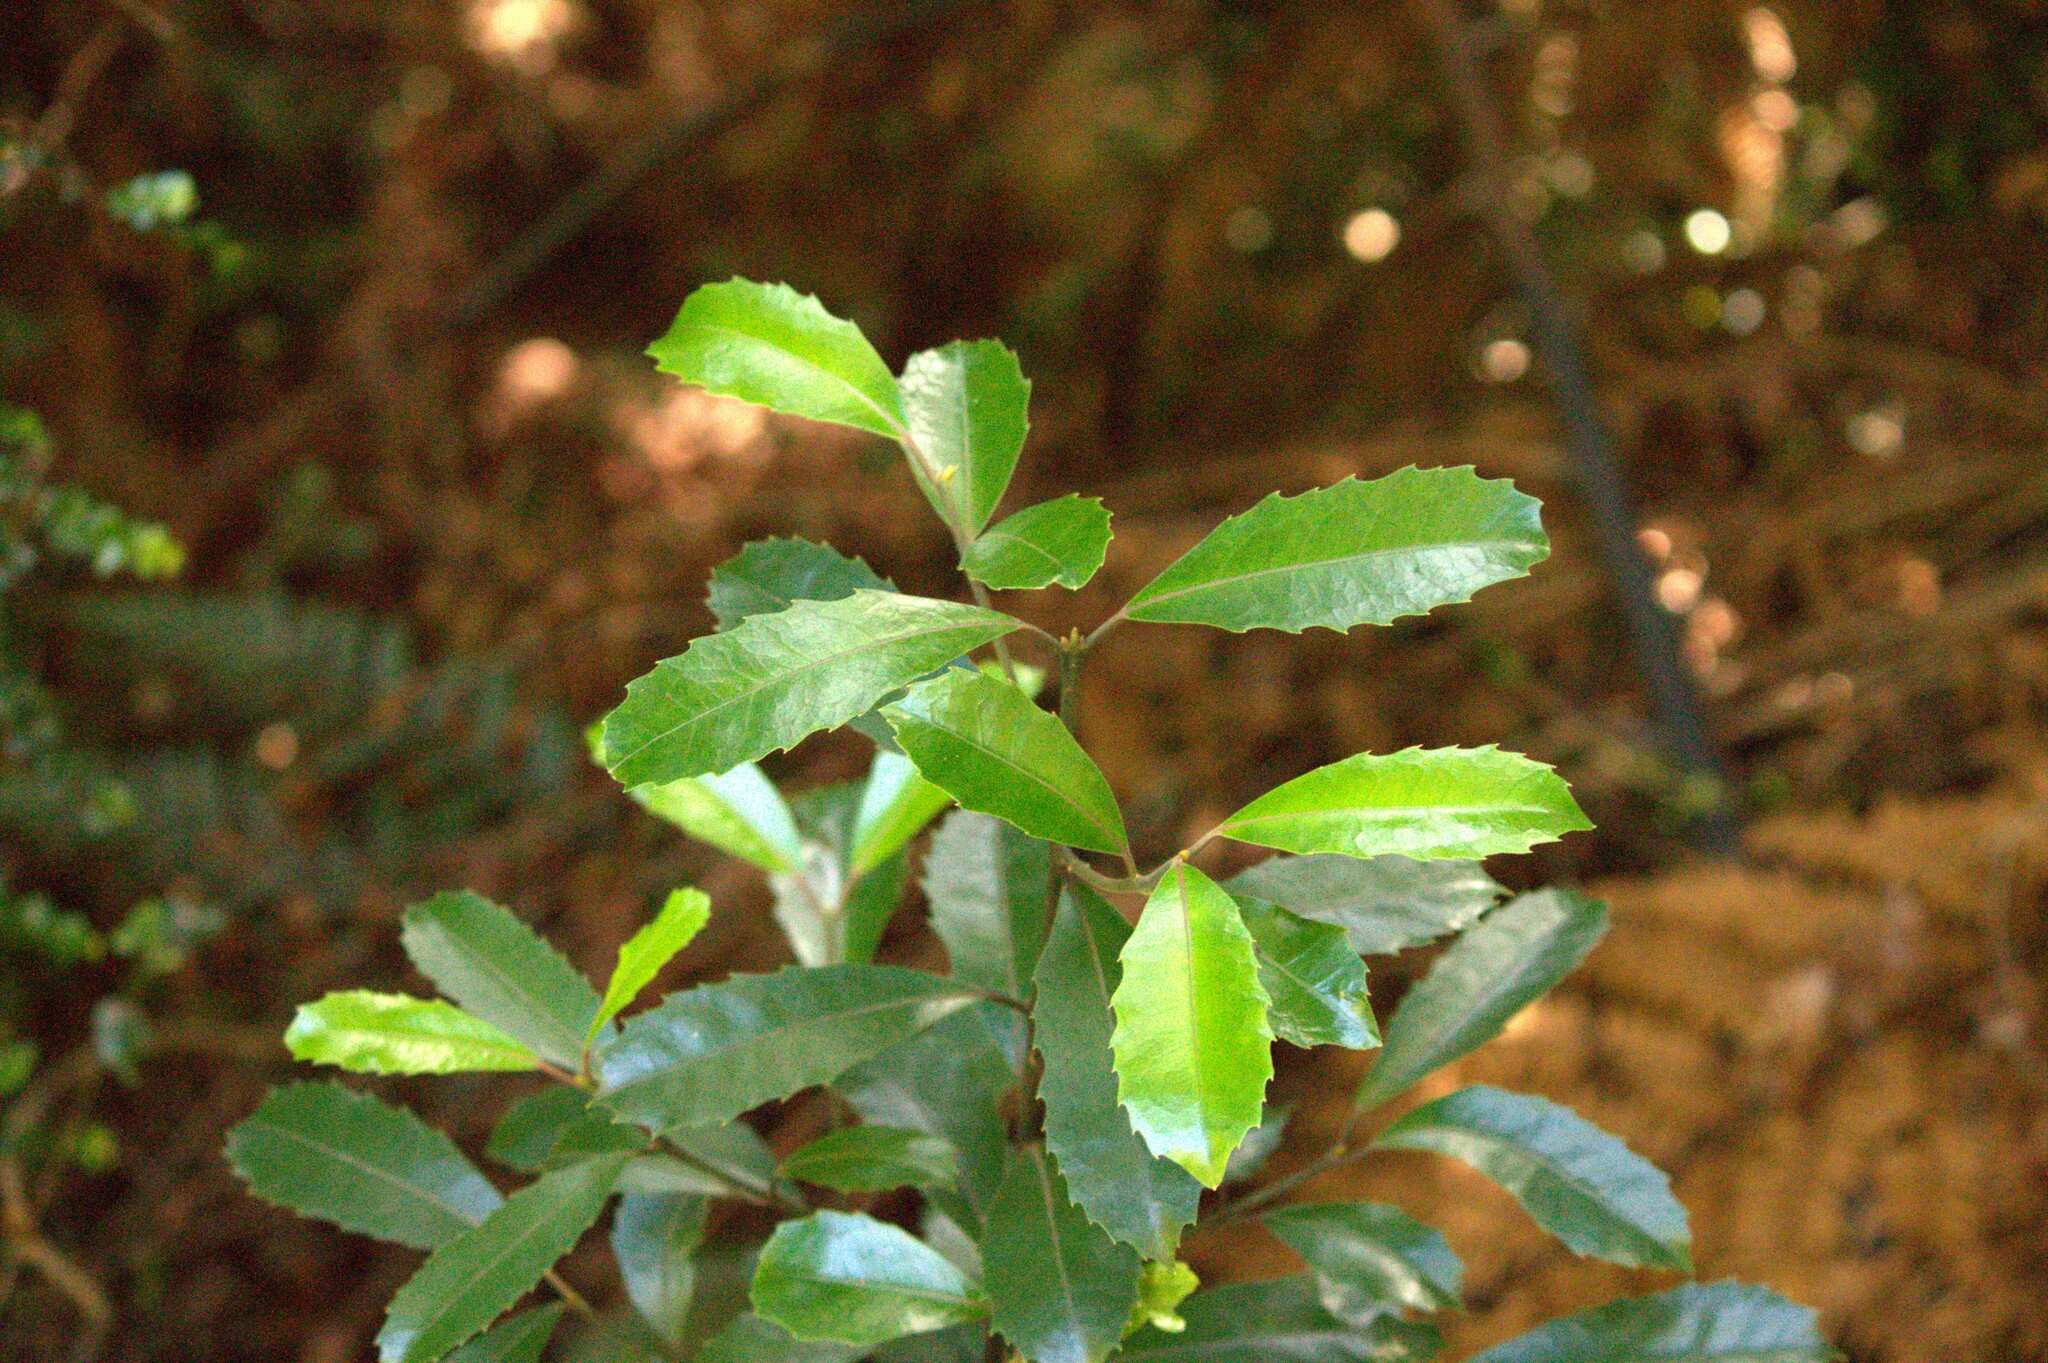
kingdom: Plantae
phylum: Tracheophyta
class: Magnoliopsida
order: Laurales
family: Monimiaceae
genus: Hedycarya
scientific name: Hedycarya arborea
